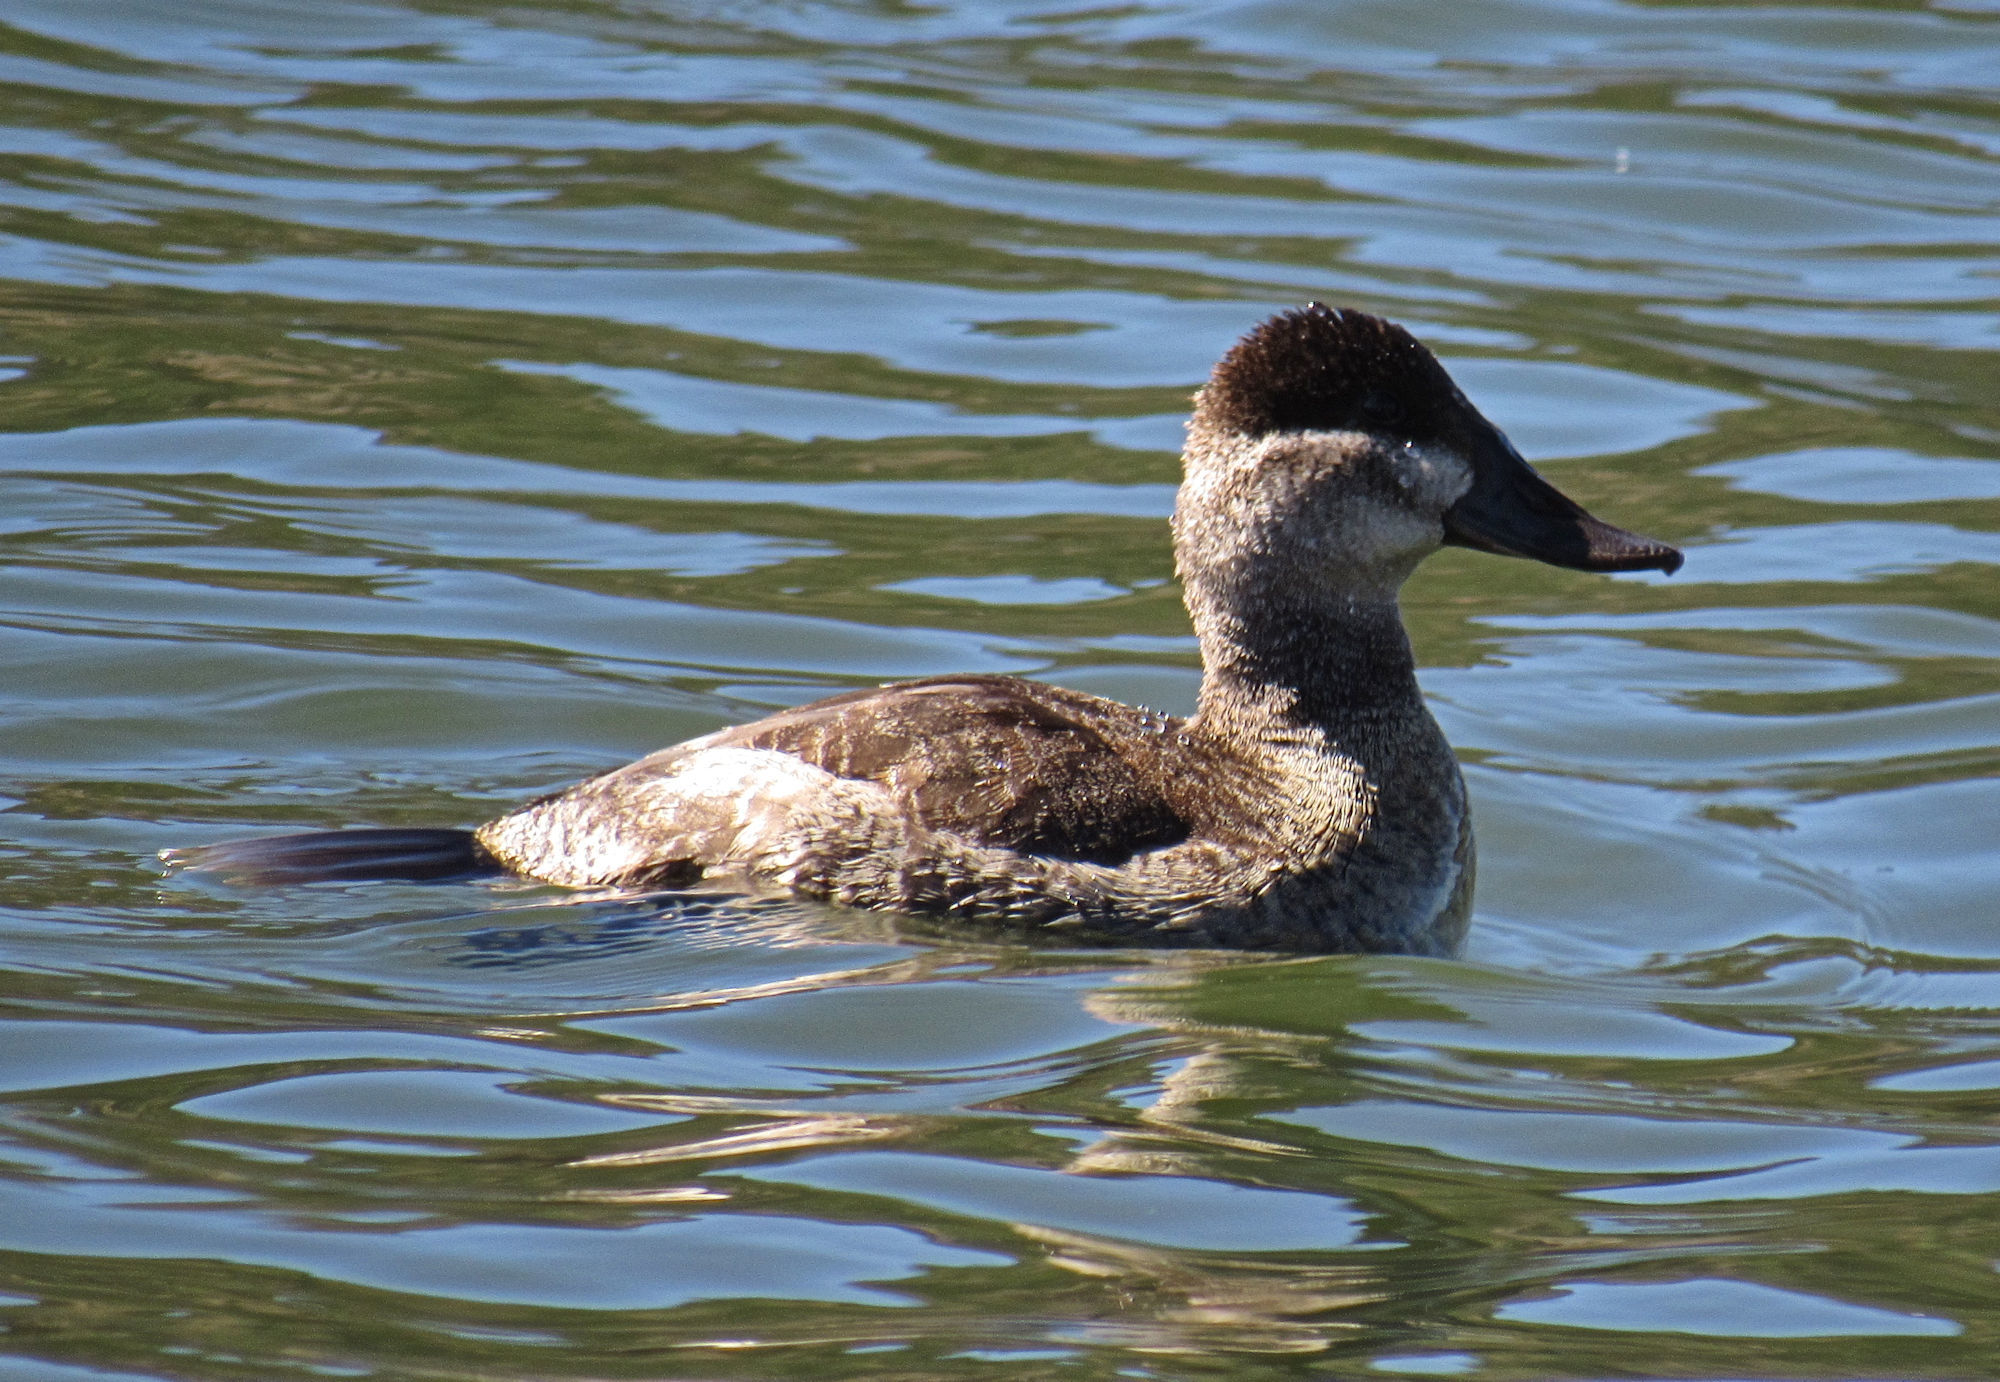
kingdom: Animalia
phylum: Chordata
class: Aves
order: Anseriformes
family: Anatidae
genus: Oxyura
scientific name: Oxyura jamaicensis
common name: Ruddy duck
